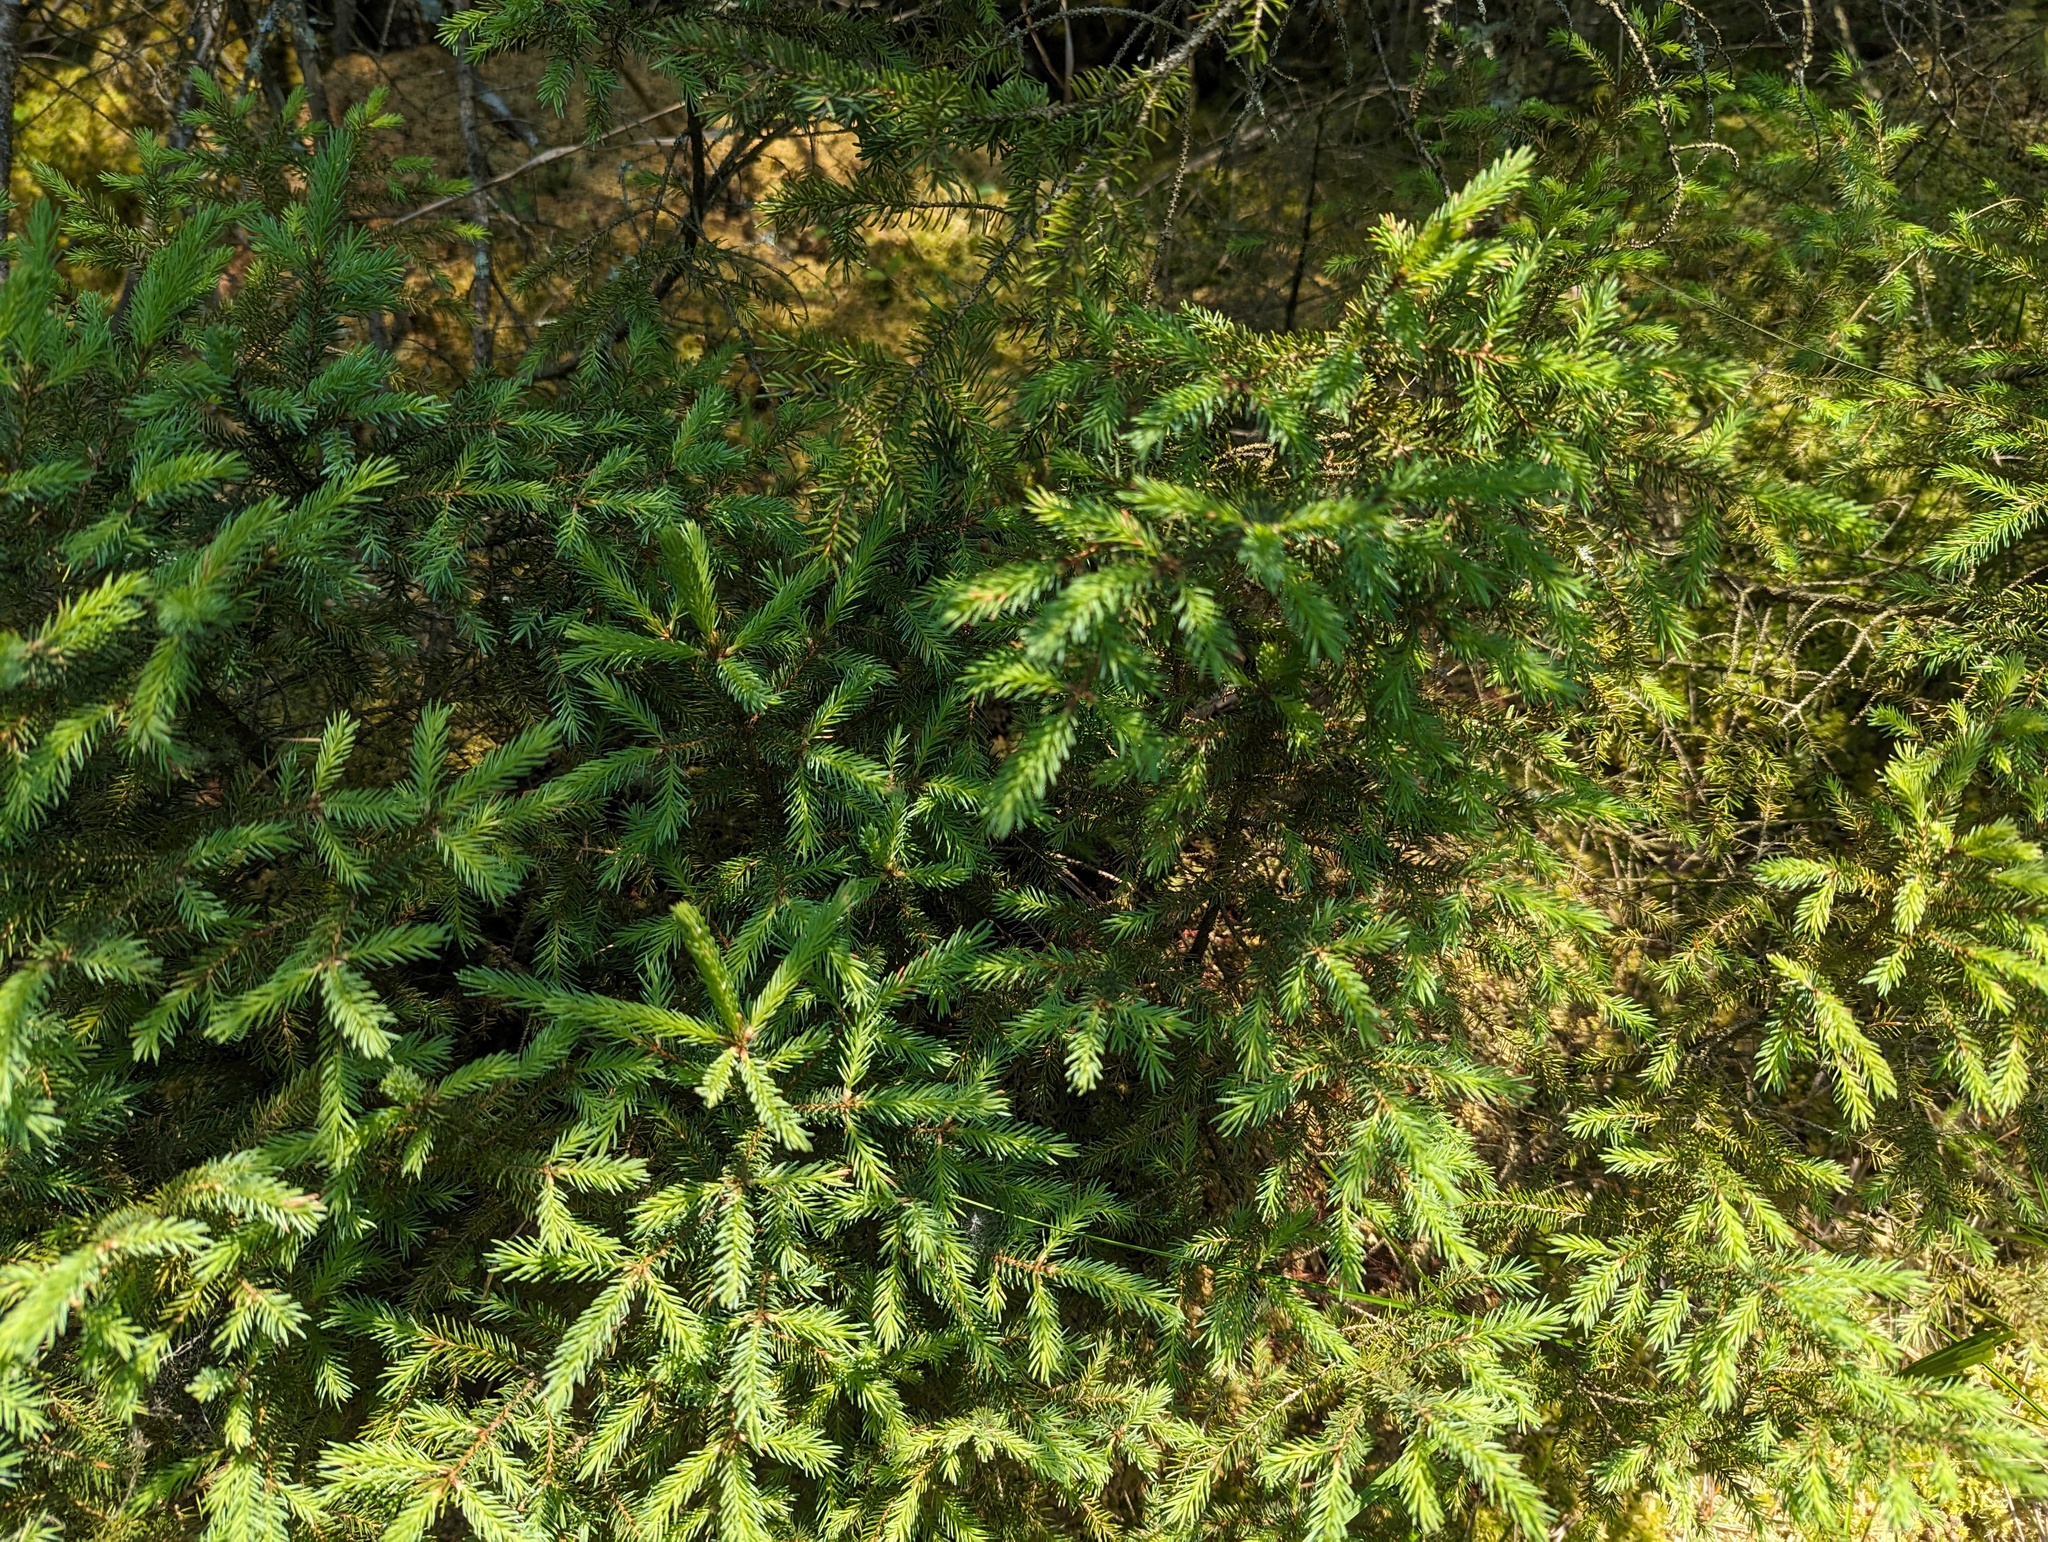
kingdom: Plantae
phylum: Tracheophyta
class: Pinopsida
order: Pinales
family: Pinaceae
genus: Picea
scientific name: Picea mariana
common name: Black spruce
